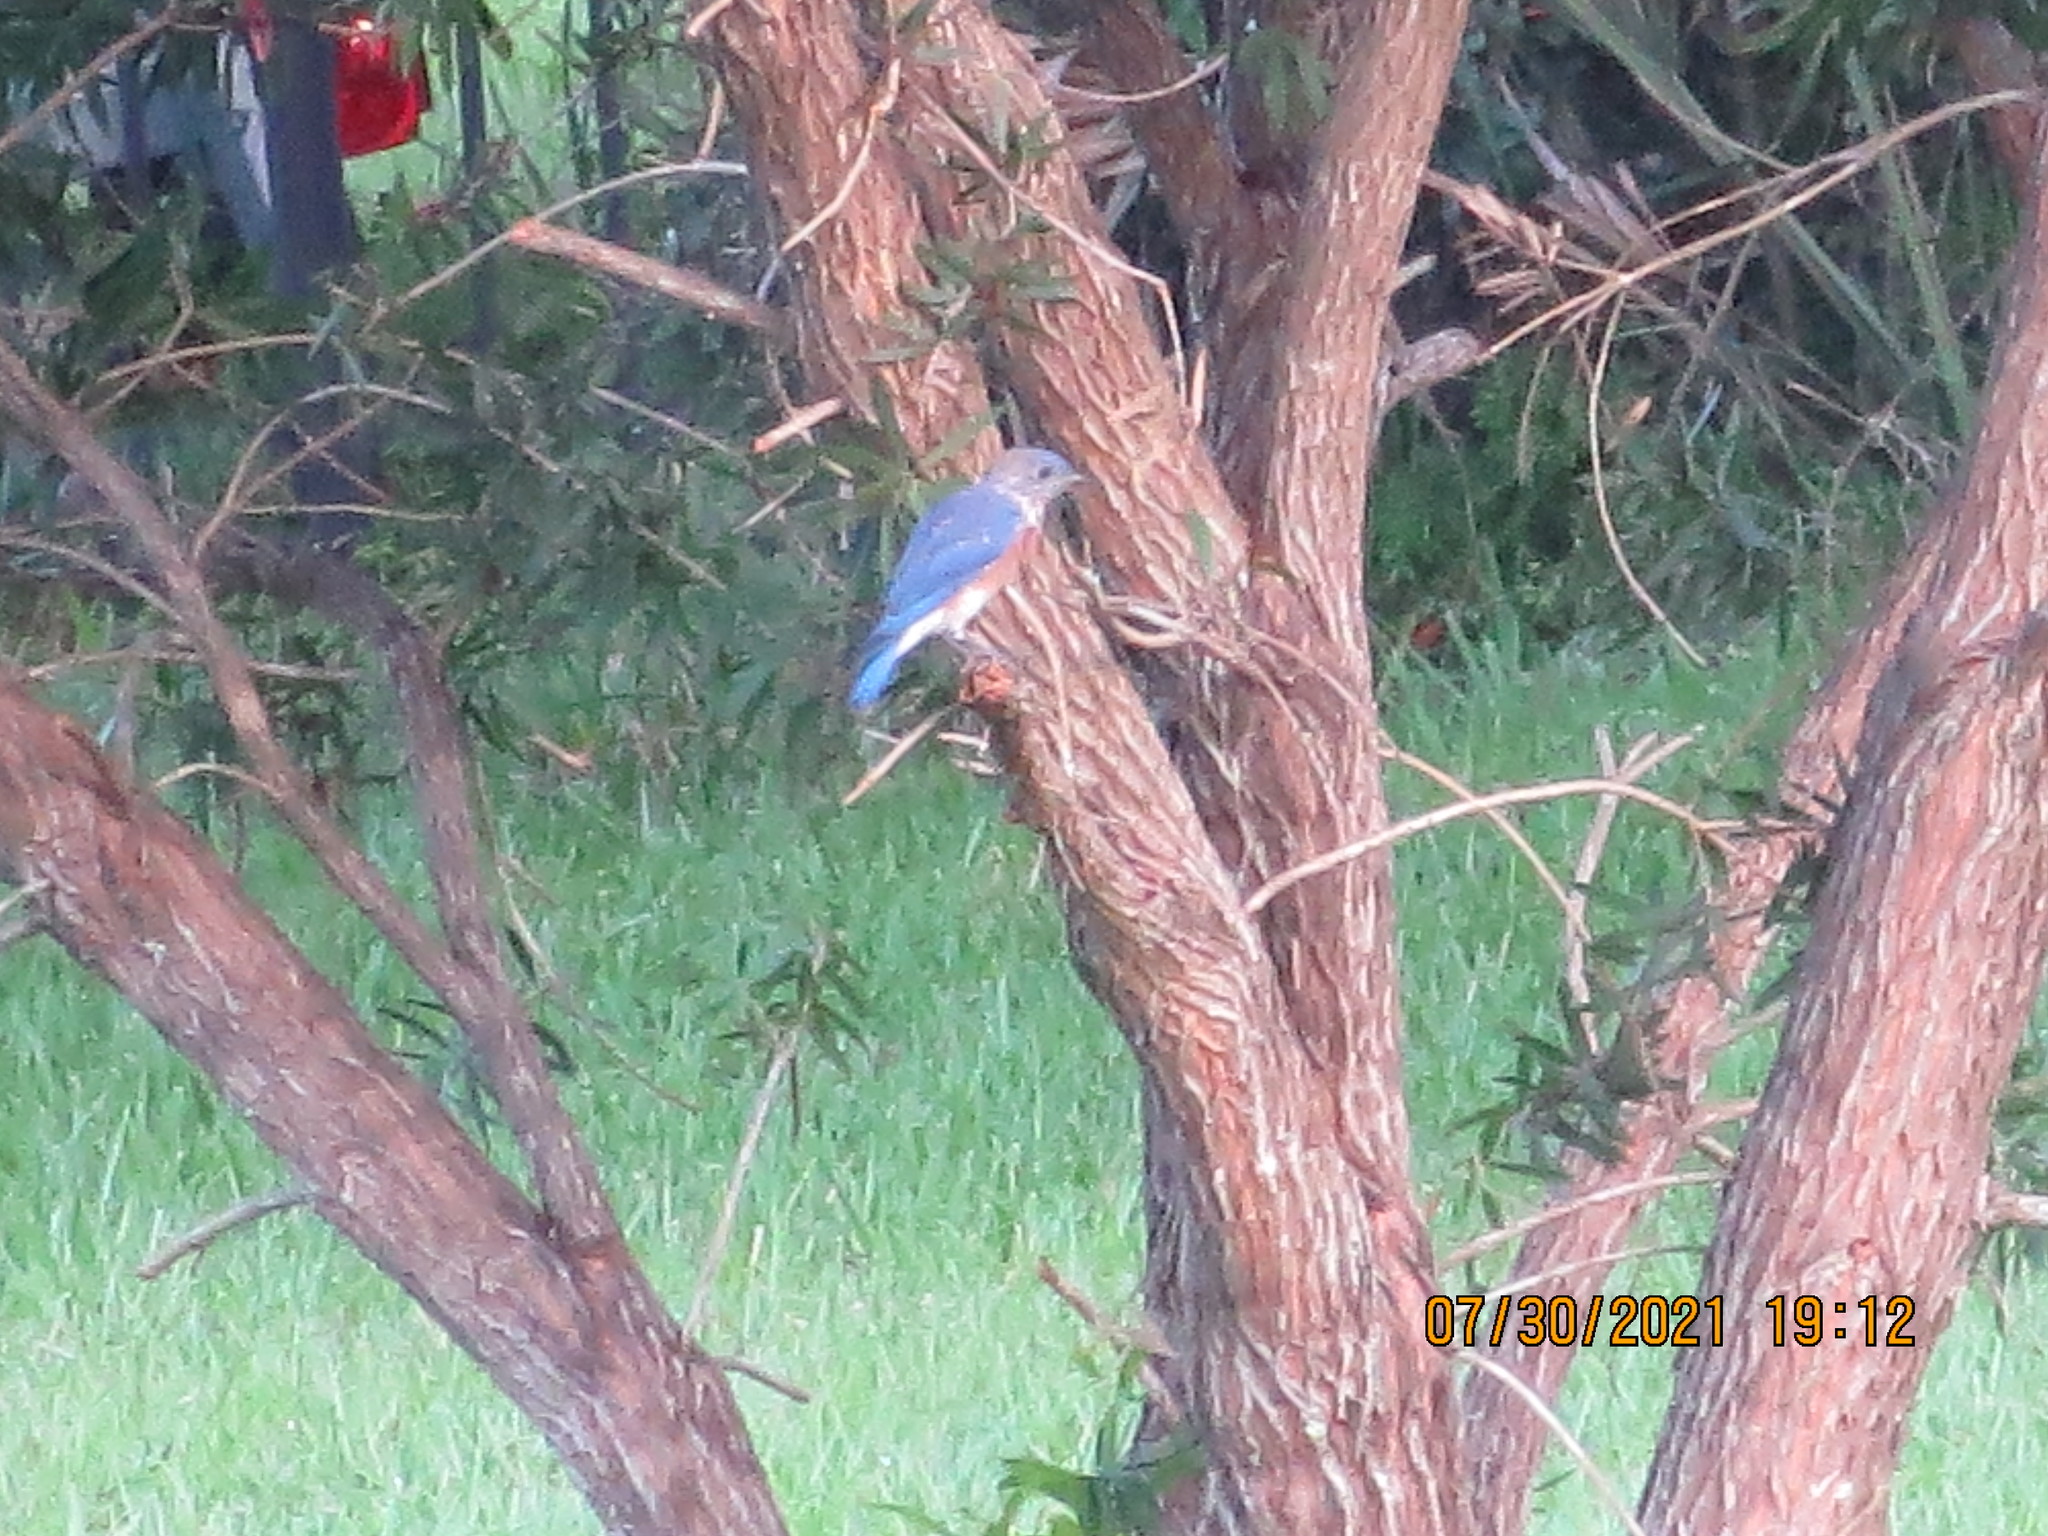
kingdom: Animalia
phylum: Chordata
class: Aves
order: Passeriformes
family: Turdidae
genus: Sialia
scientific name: Sialia sialis
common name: Eastern bluebird
